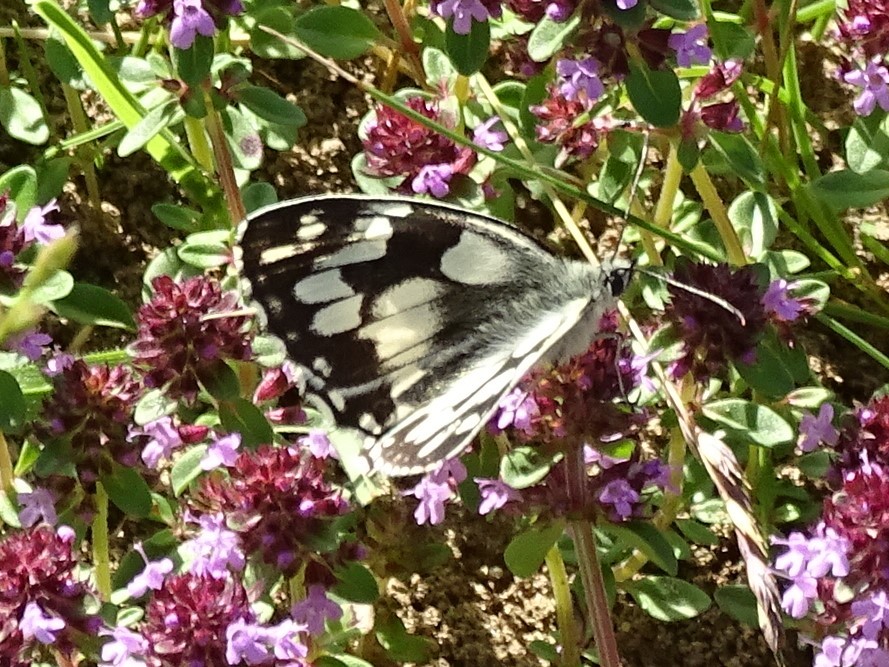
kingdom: Animalia
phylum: Arthropoda
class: Insecta
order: Lepidoptera
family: Nymphalidae
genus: Melanargia
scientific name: Melanargia galathea
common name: Marbled white
